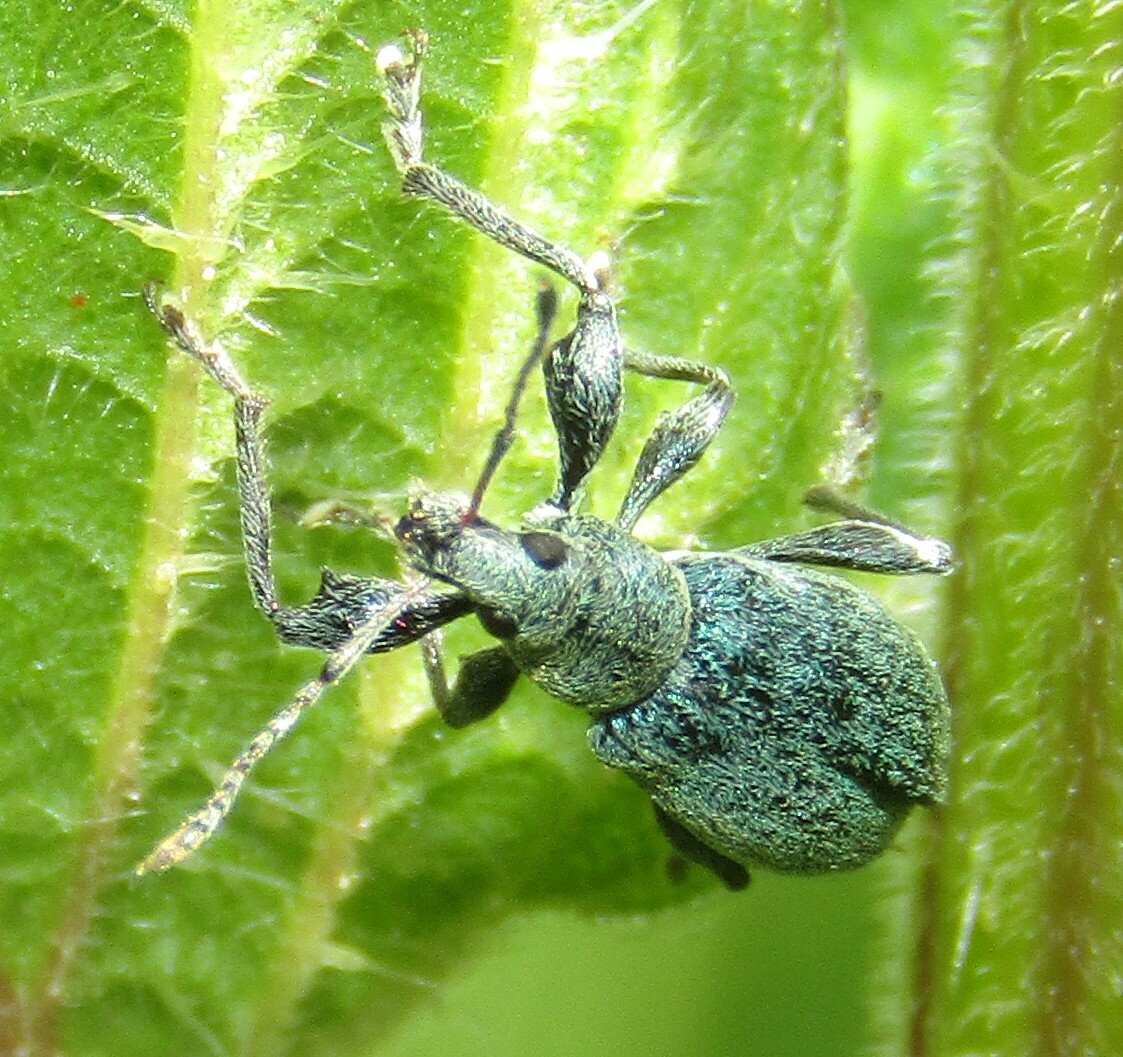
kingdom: Animalia
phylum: Arthropoda
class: Insecta
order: Coleoptera
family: Curculionidae
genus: Phyllobius
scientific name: Phyllobius pomaceus
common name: Green nettle weevil
